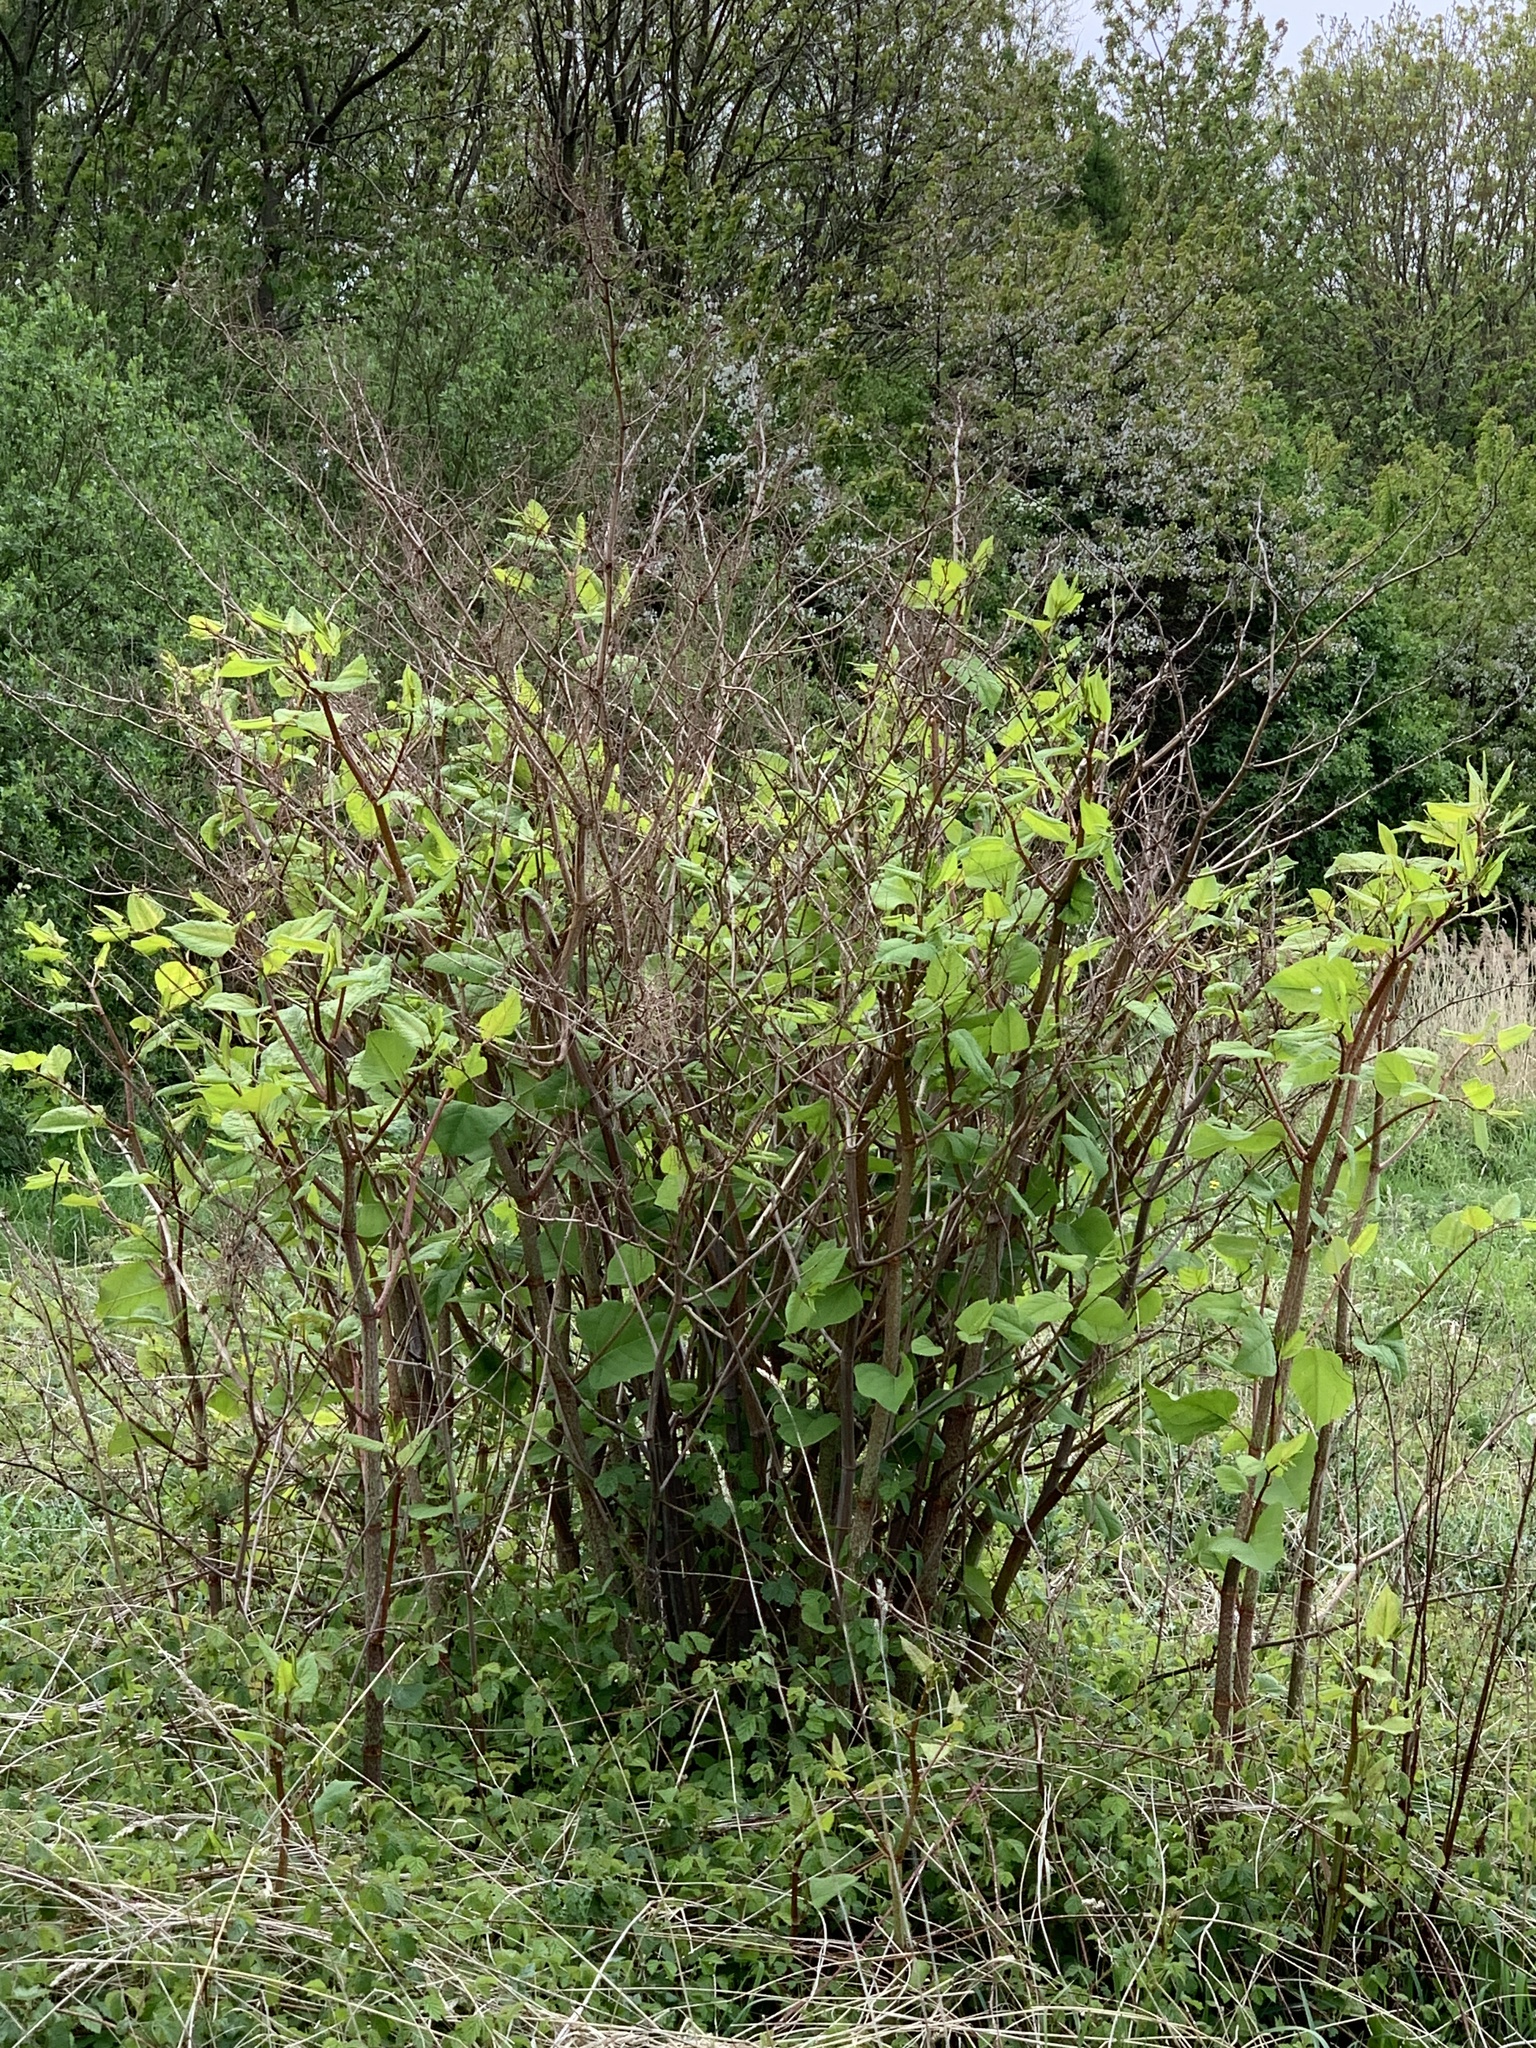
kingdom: Plantae
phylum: Tracheophyta
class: Magnoliopsida
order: Caryophyllales
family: Polygonaceae
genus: Reynoutria
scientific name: Reynoutria japonica
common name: Japanese knotweed
